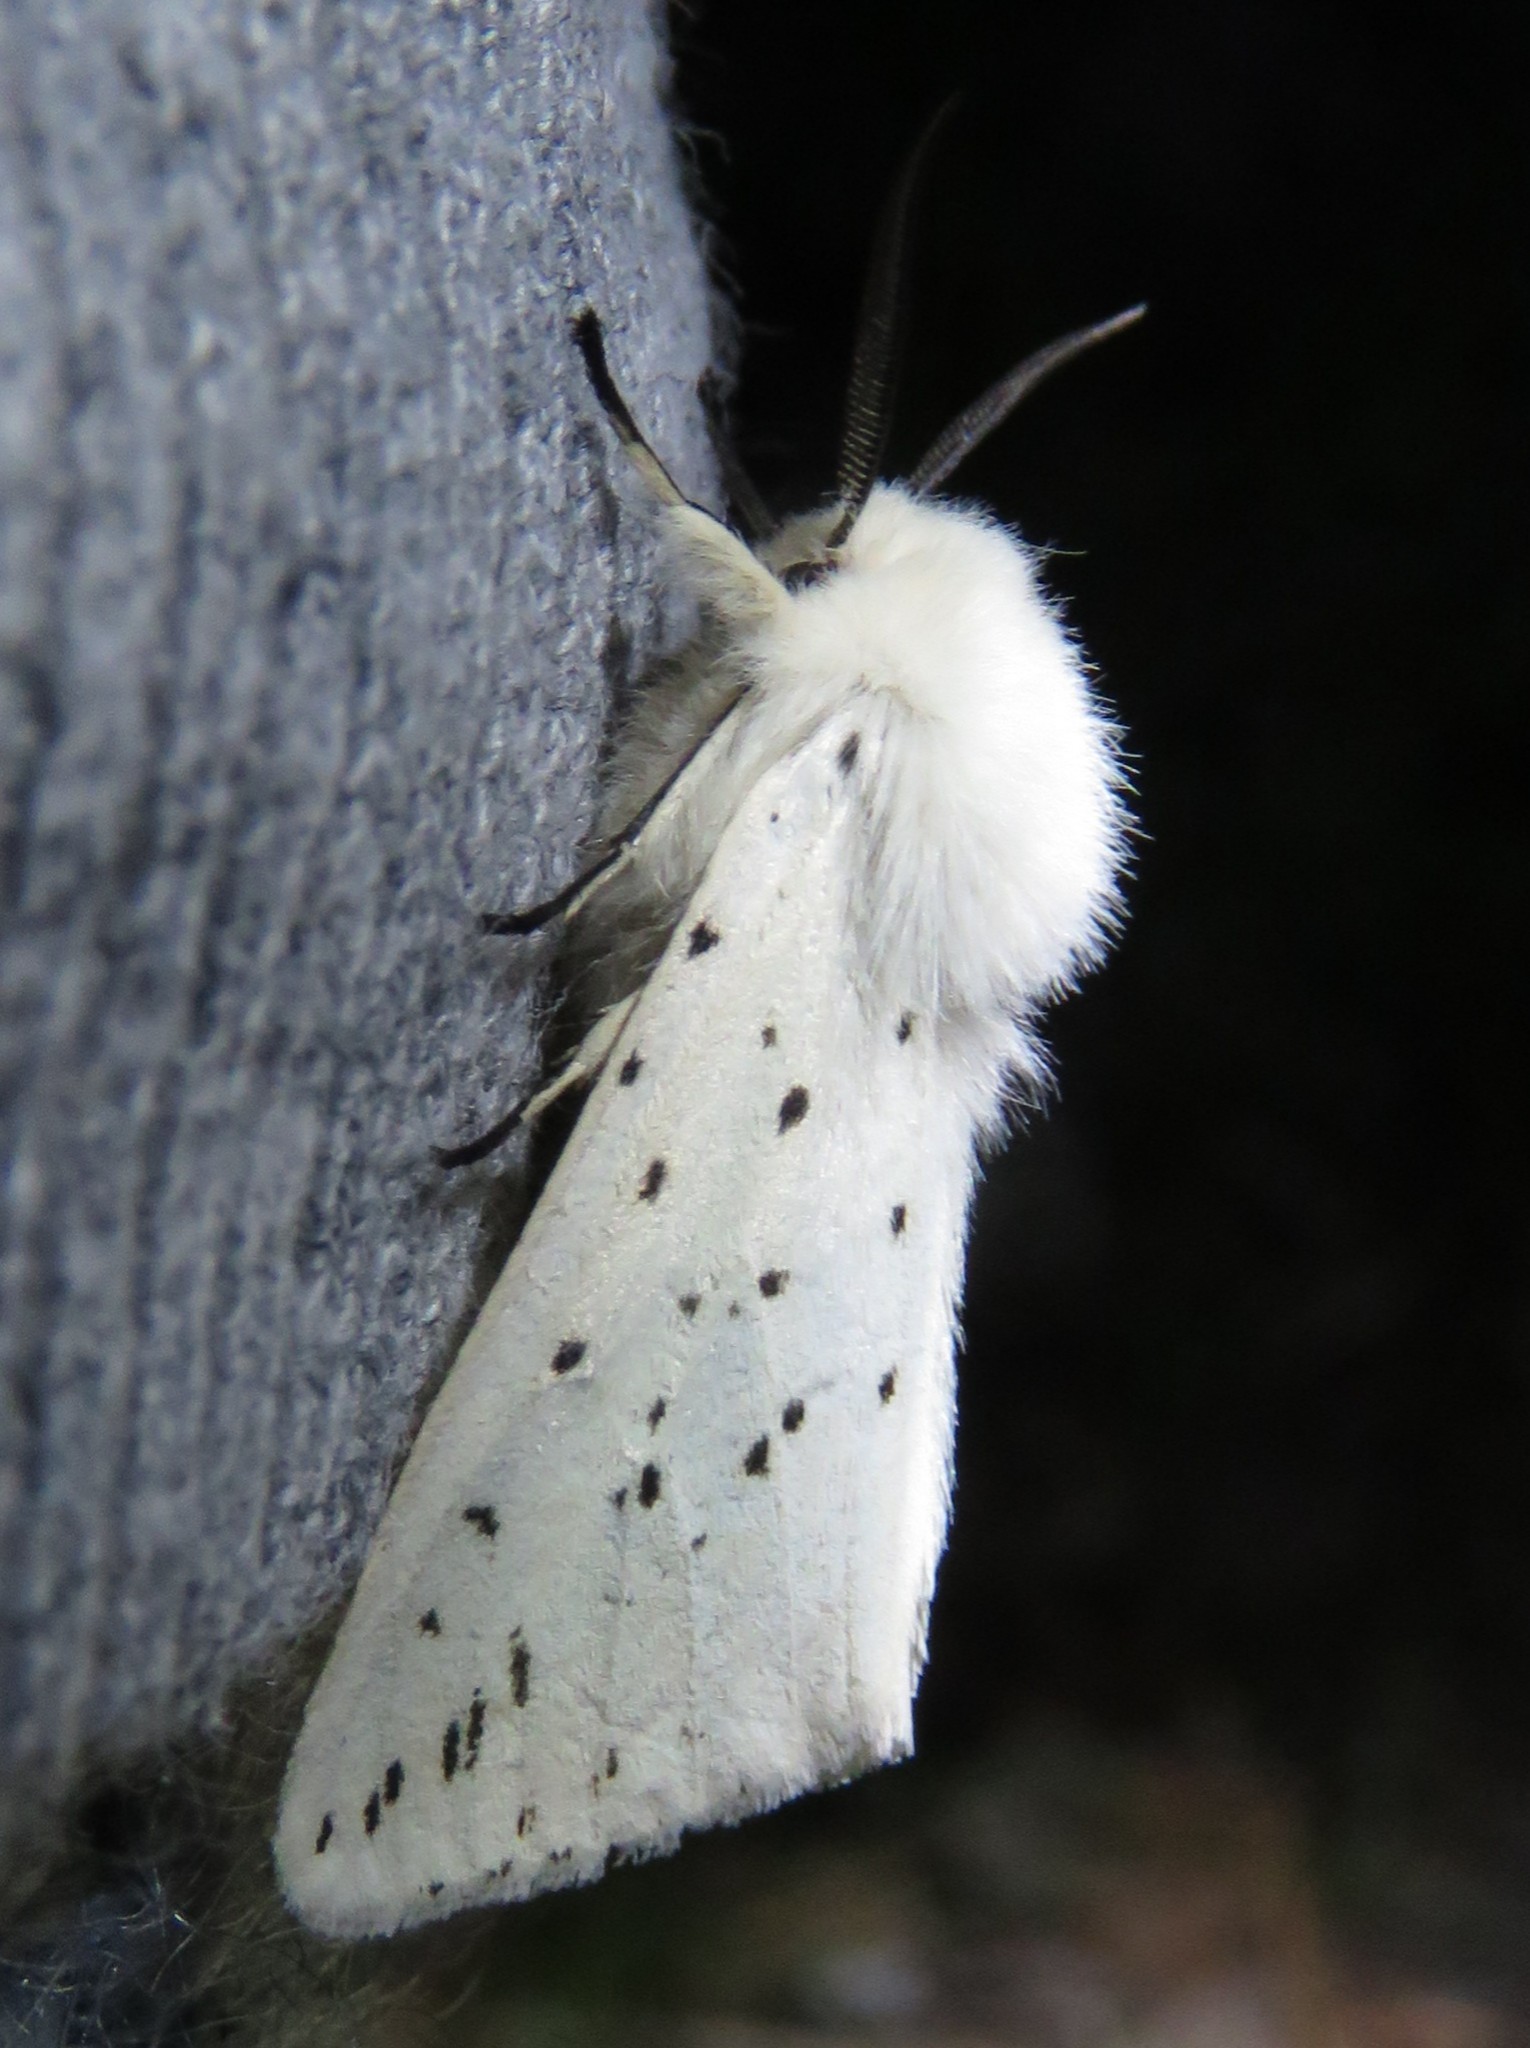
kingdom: Animalia
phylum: Arthropoda
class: Insecta
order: Lepidoptera
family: Erebidae
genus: Spilosoma
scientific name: Spilosoma lubricipeda
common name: White ermine
